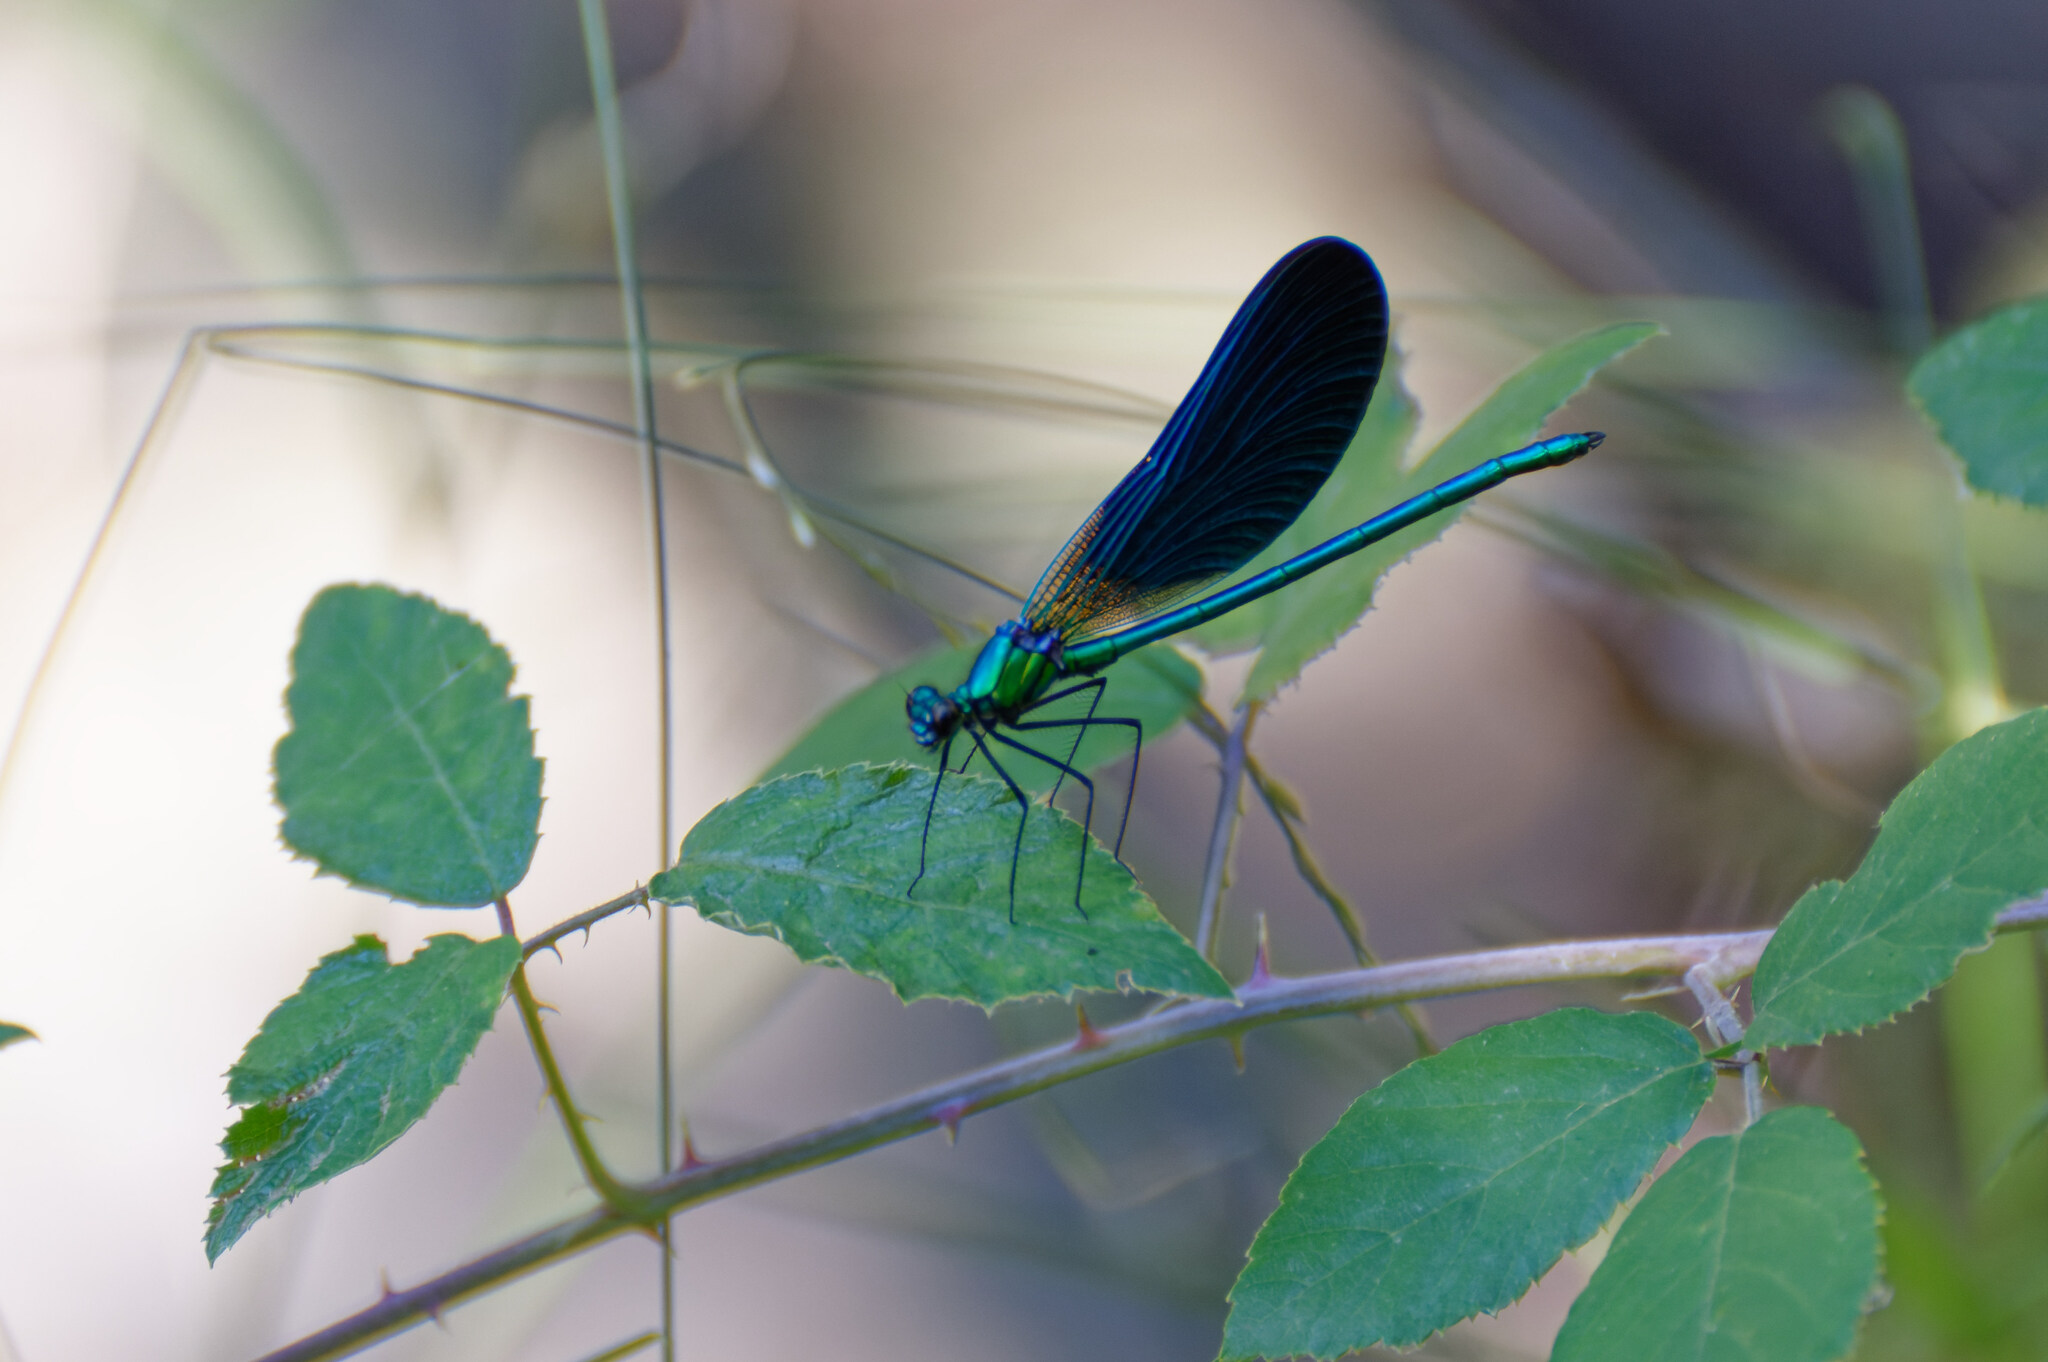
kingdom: Animalia
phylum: Arthropoda
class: Insecta
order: Odonata
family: Calopterygidae
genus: Calopteryx
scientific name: Calopteryx virgo
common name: Beautiful demoiselle
